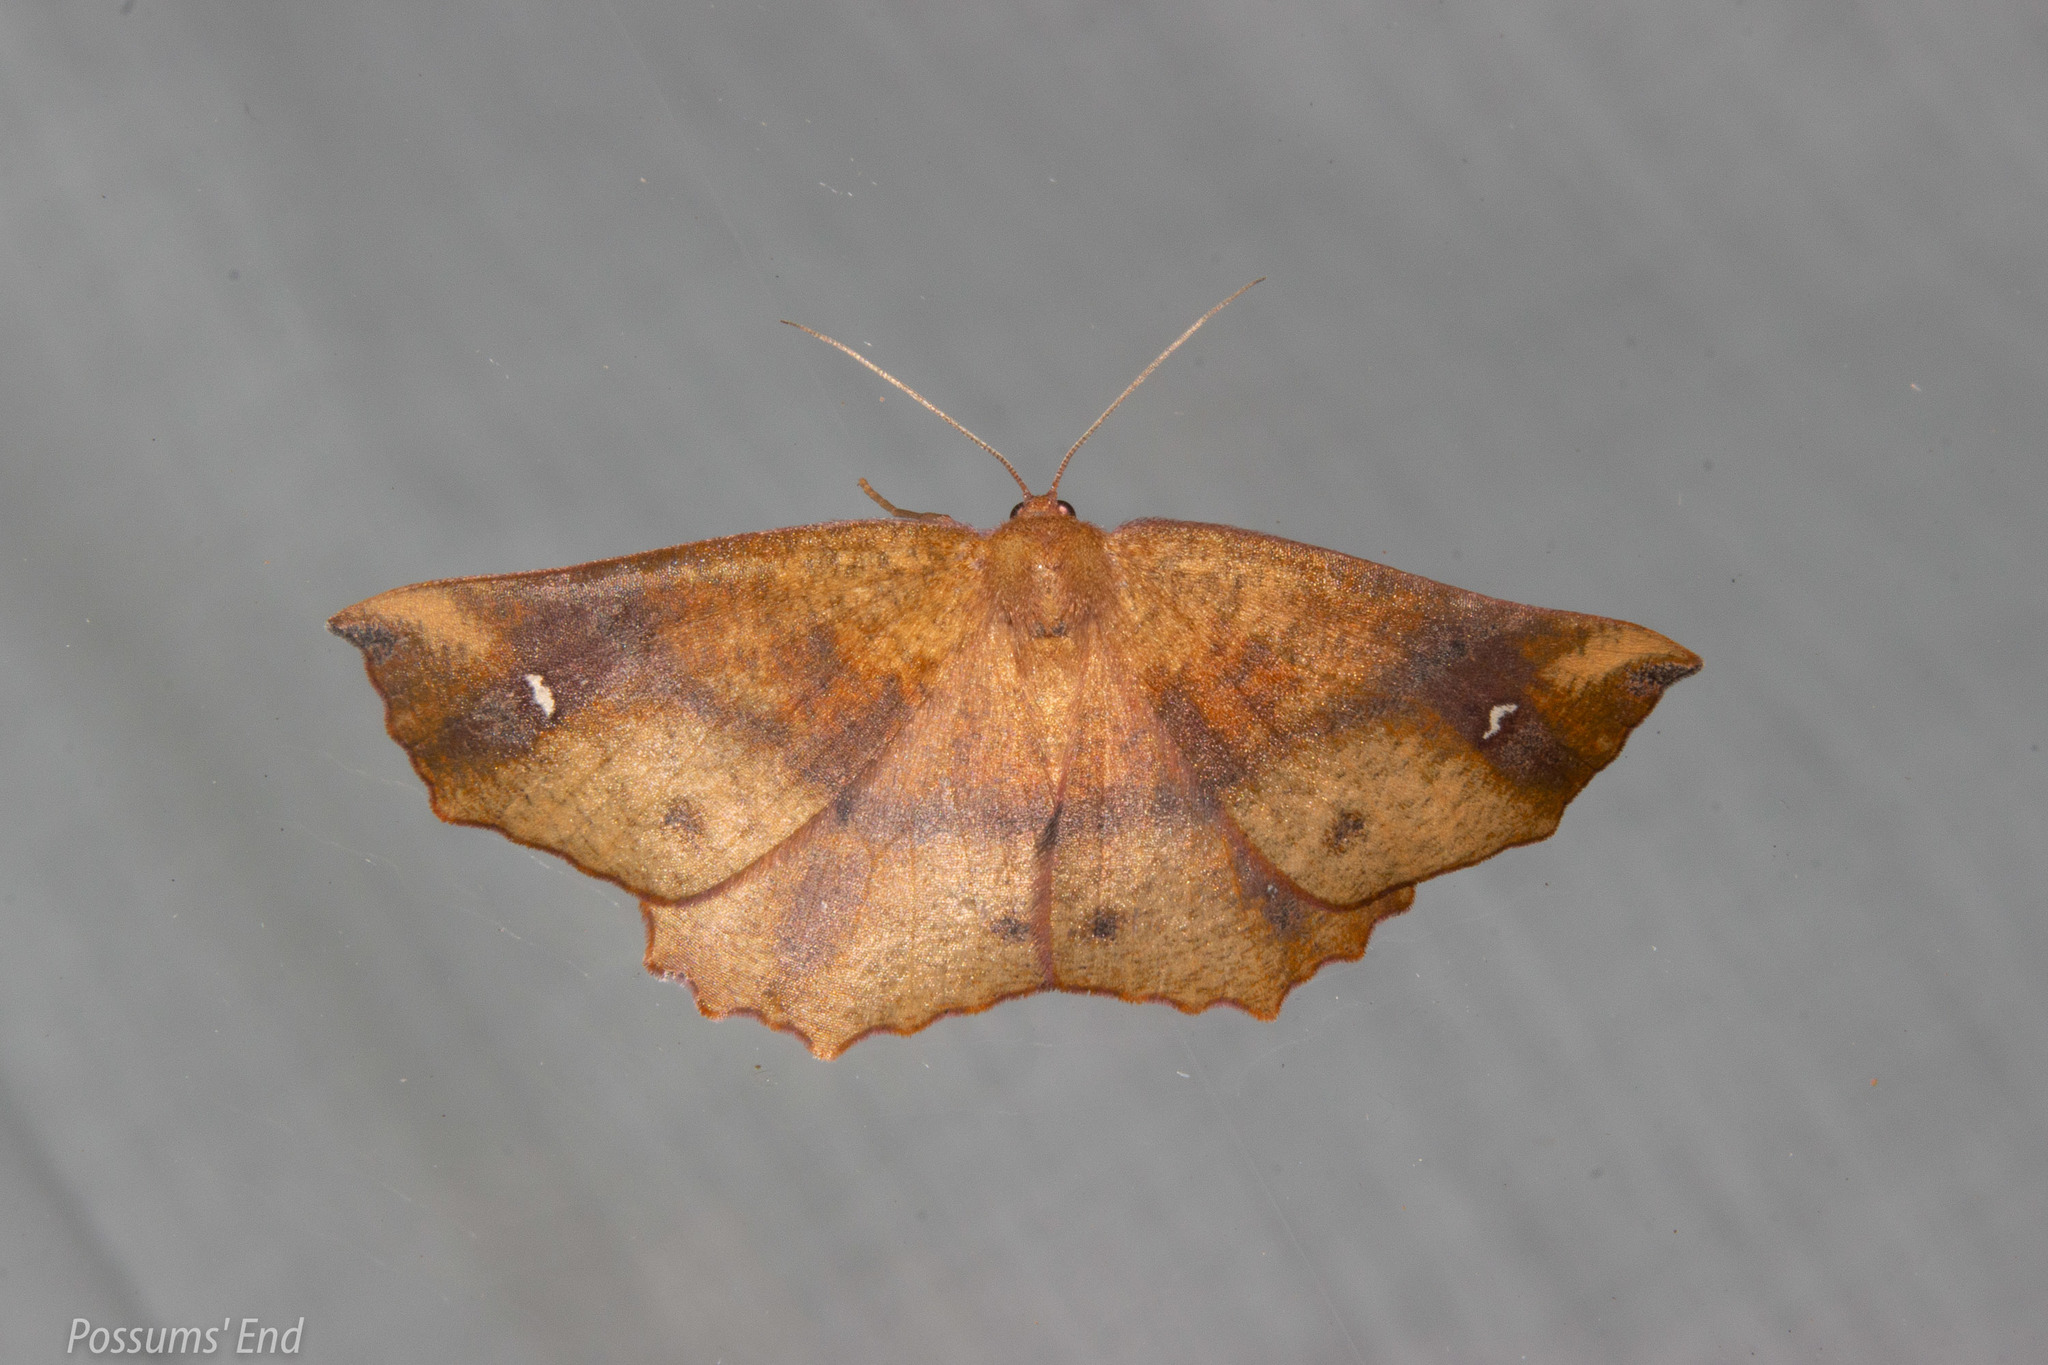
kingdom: Animalia
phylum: Arthropoda
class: Insecta
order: Lepidoptera
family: Geometridae
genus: Xyridacma
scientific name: Xyridacma ustaria
